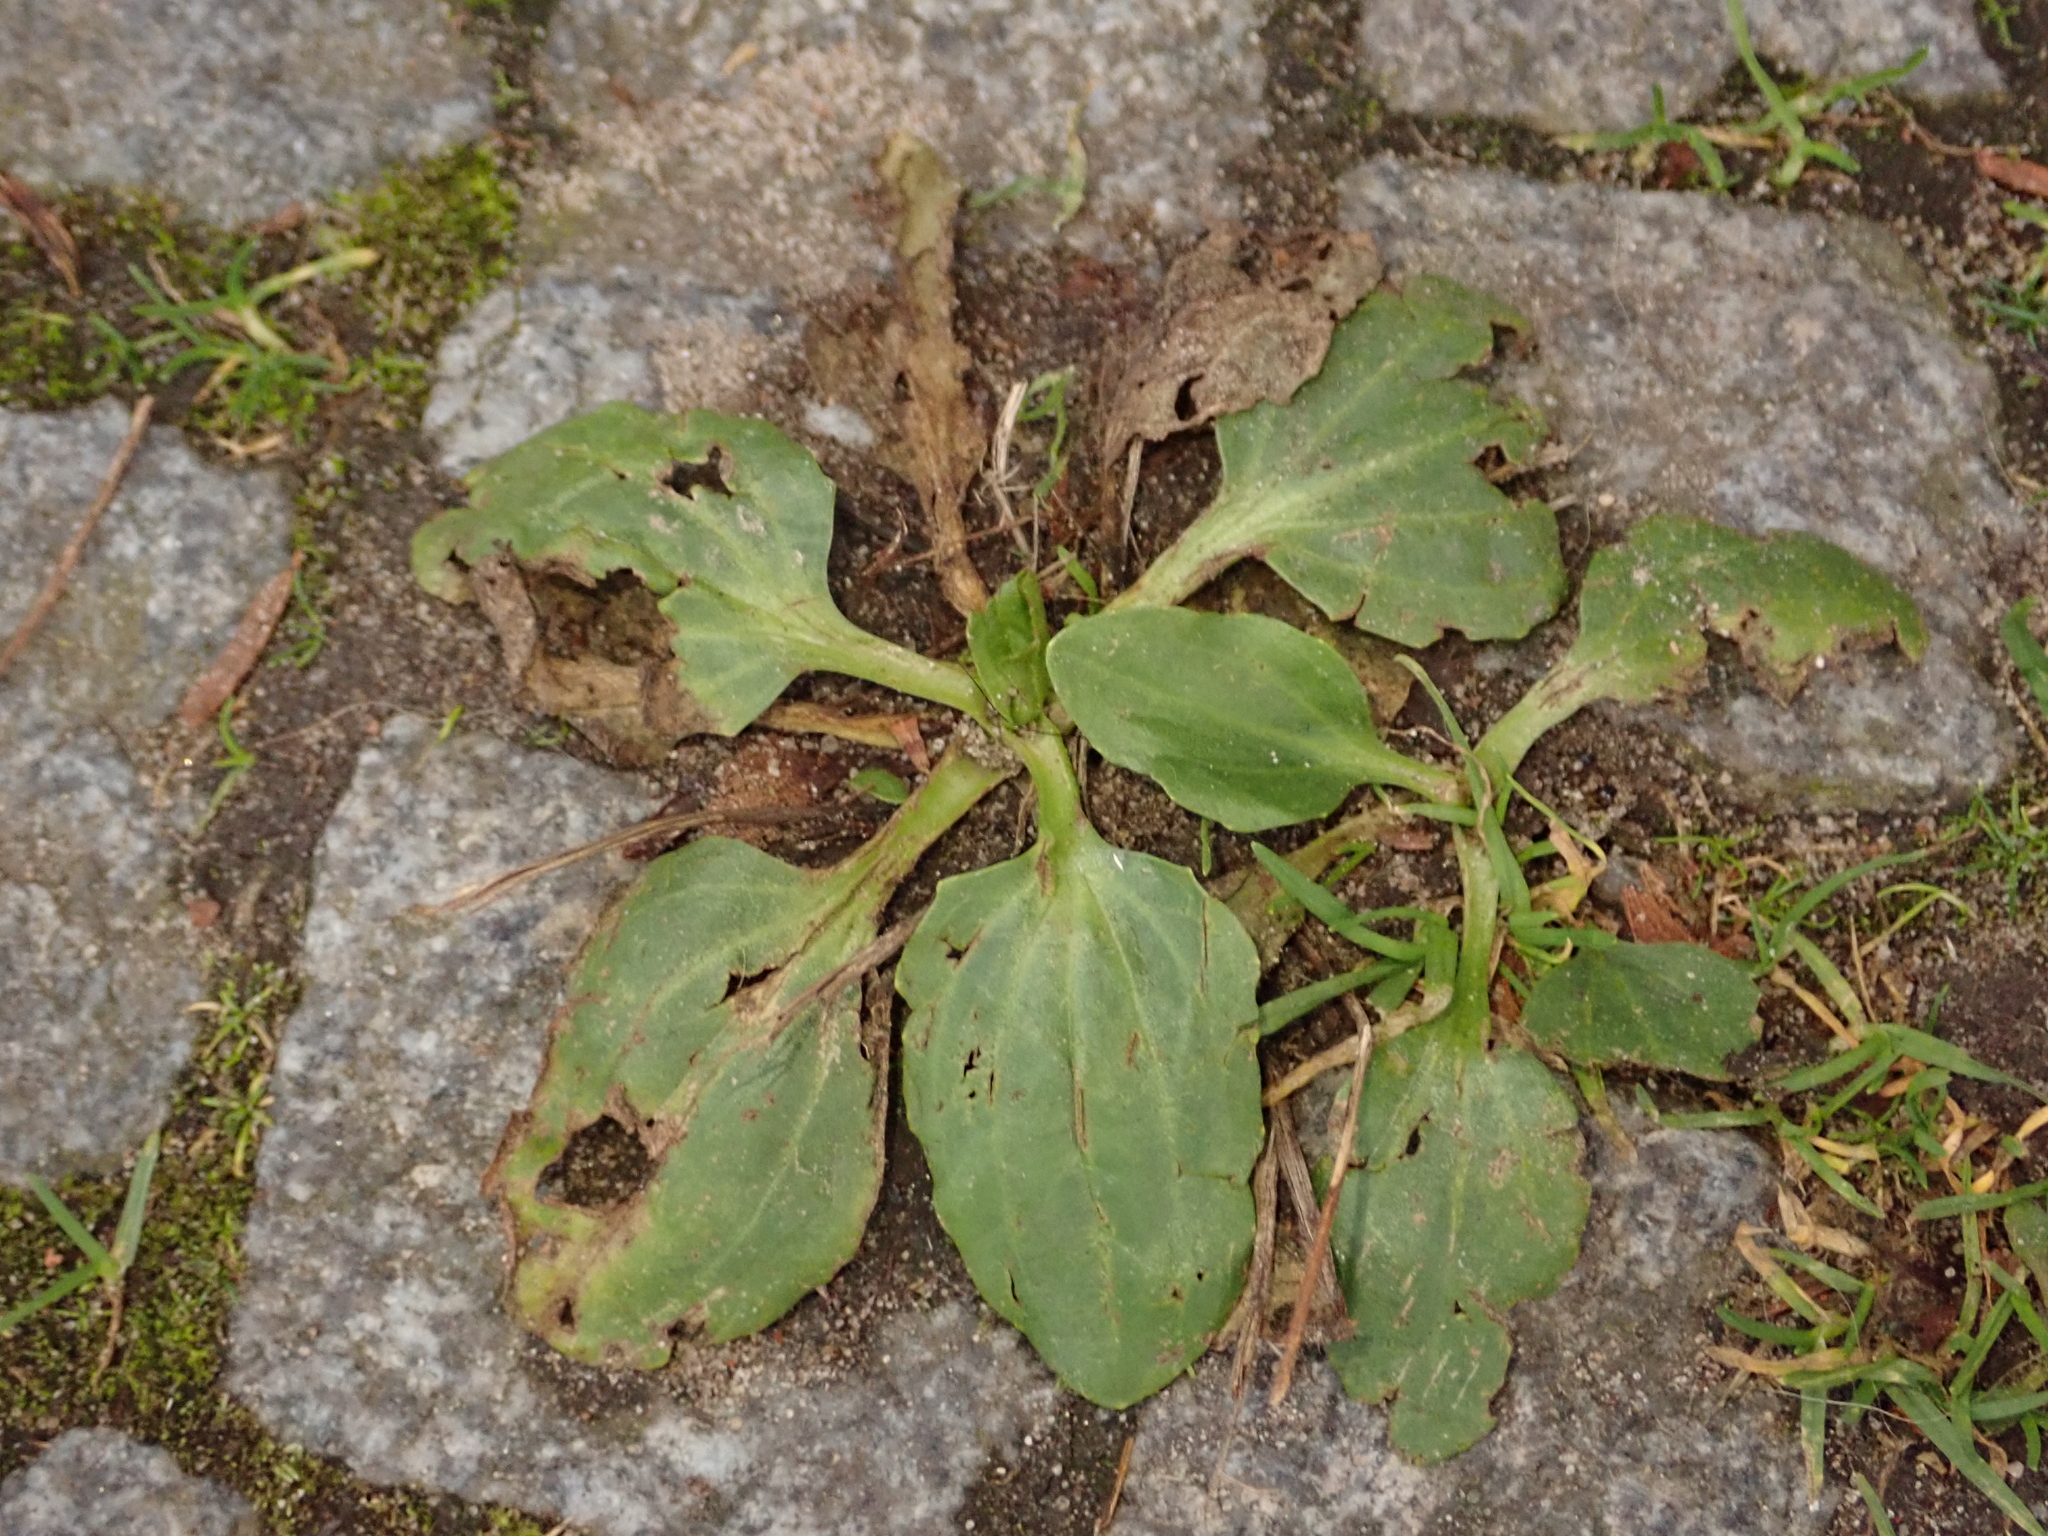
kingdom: Plantae
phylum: Tracheophyta
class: Magnoliopsida
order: Lamiales
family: Plantaginaceae
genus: Plantago
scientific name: Plantago major
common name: Common plantain
